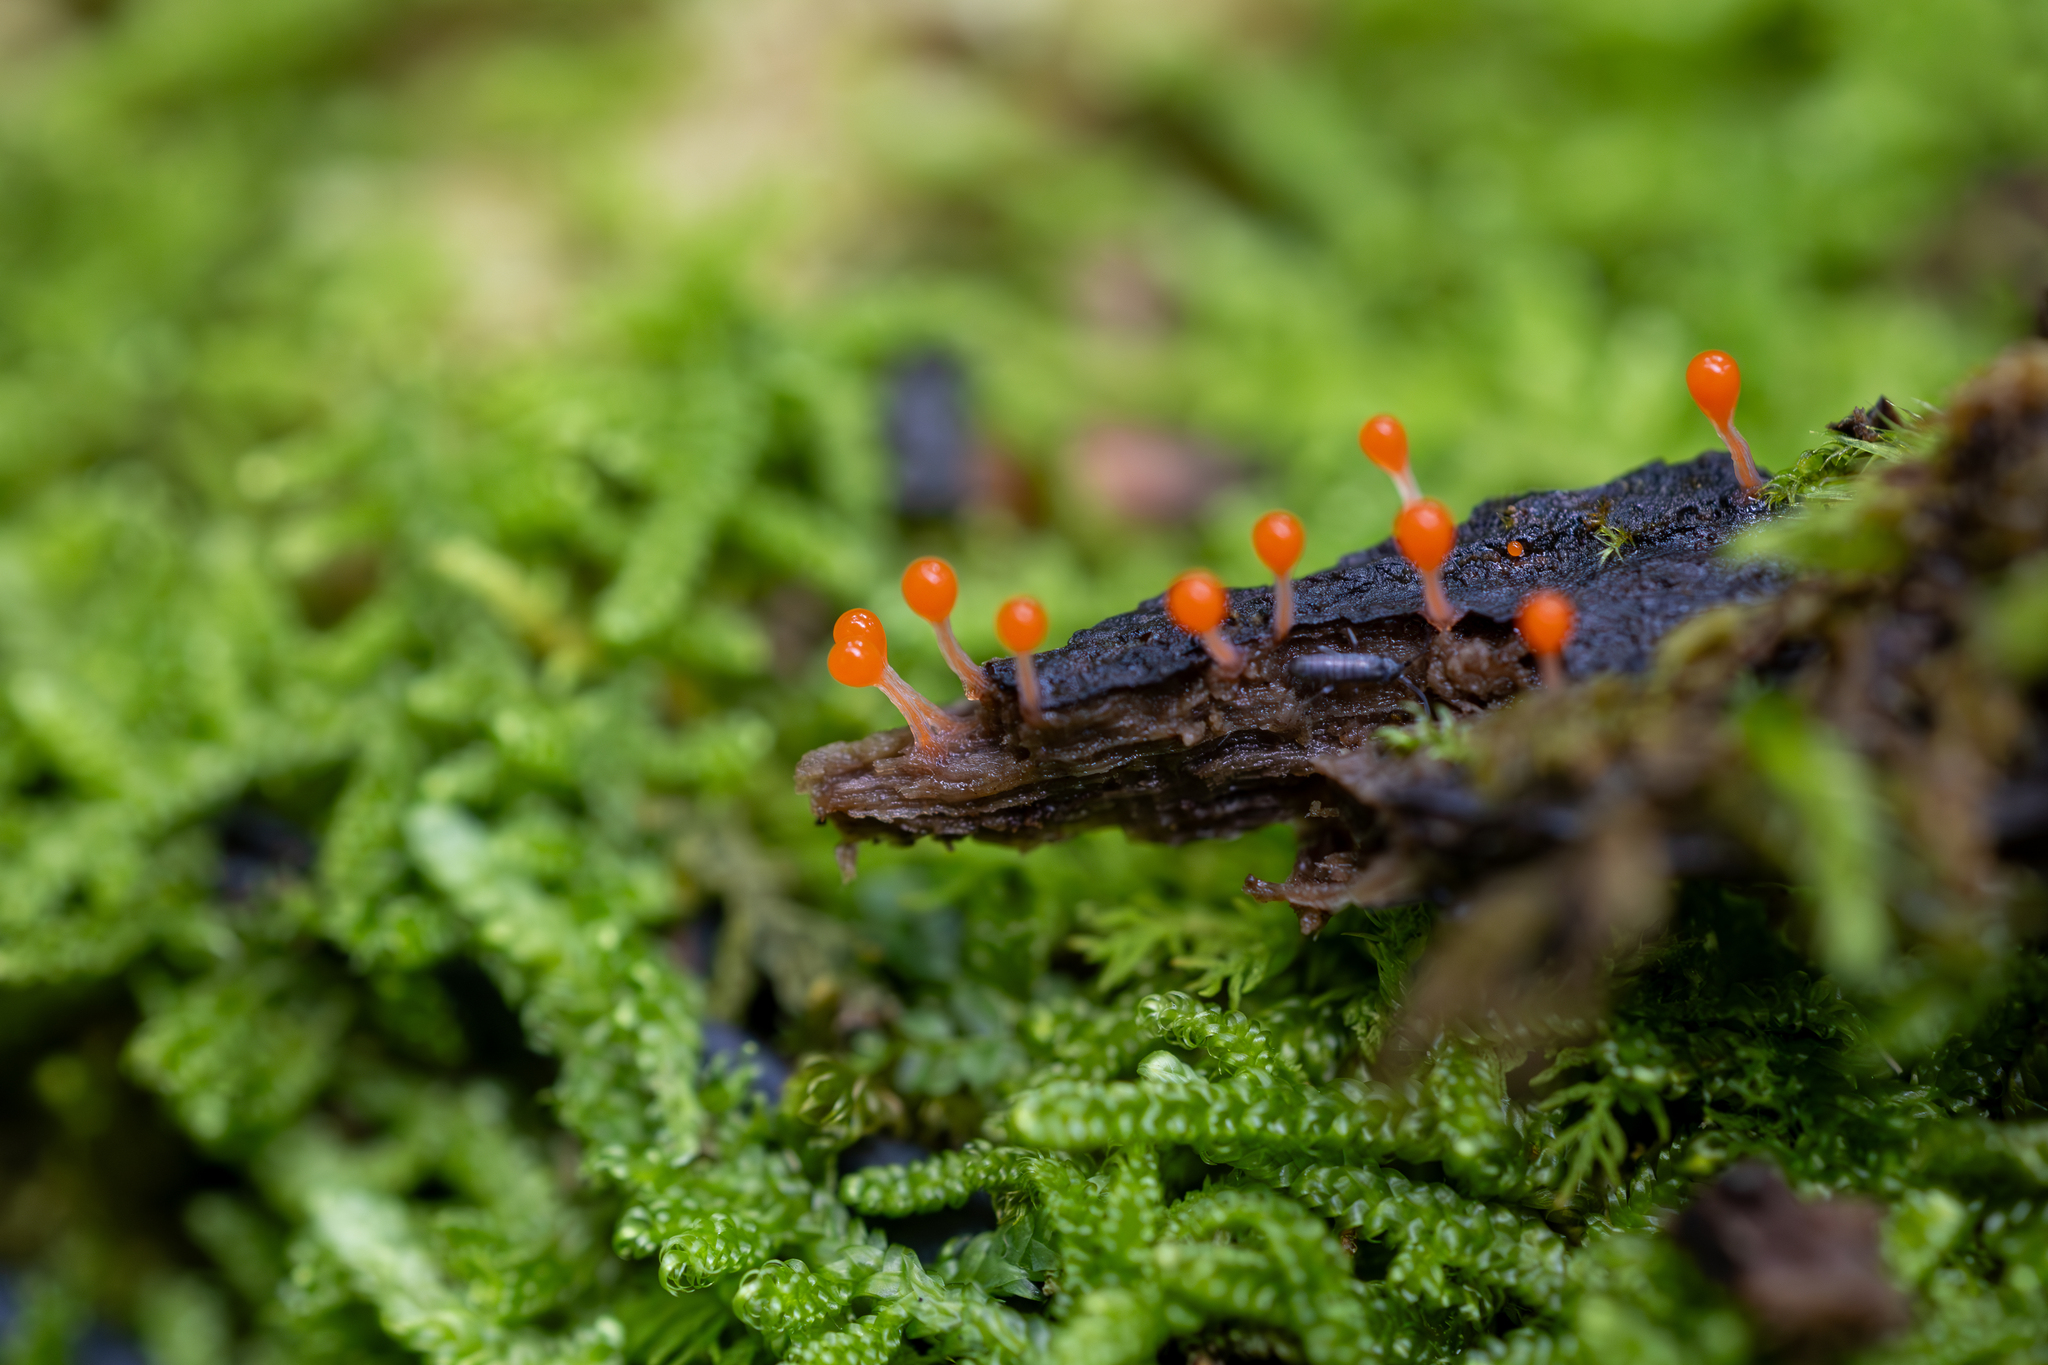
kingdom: Protozoa
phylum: Mycetozoa
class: Myxomycetes
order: Trichiales
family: Arcyriaceae
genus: Hemitrichia
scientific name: Hemitrichia decipiens
